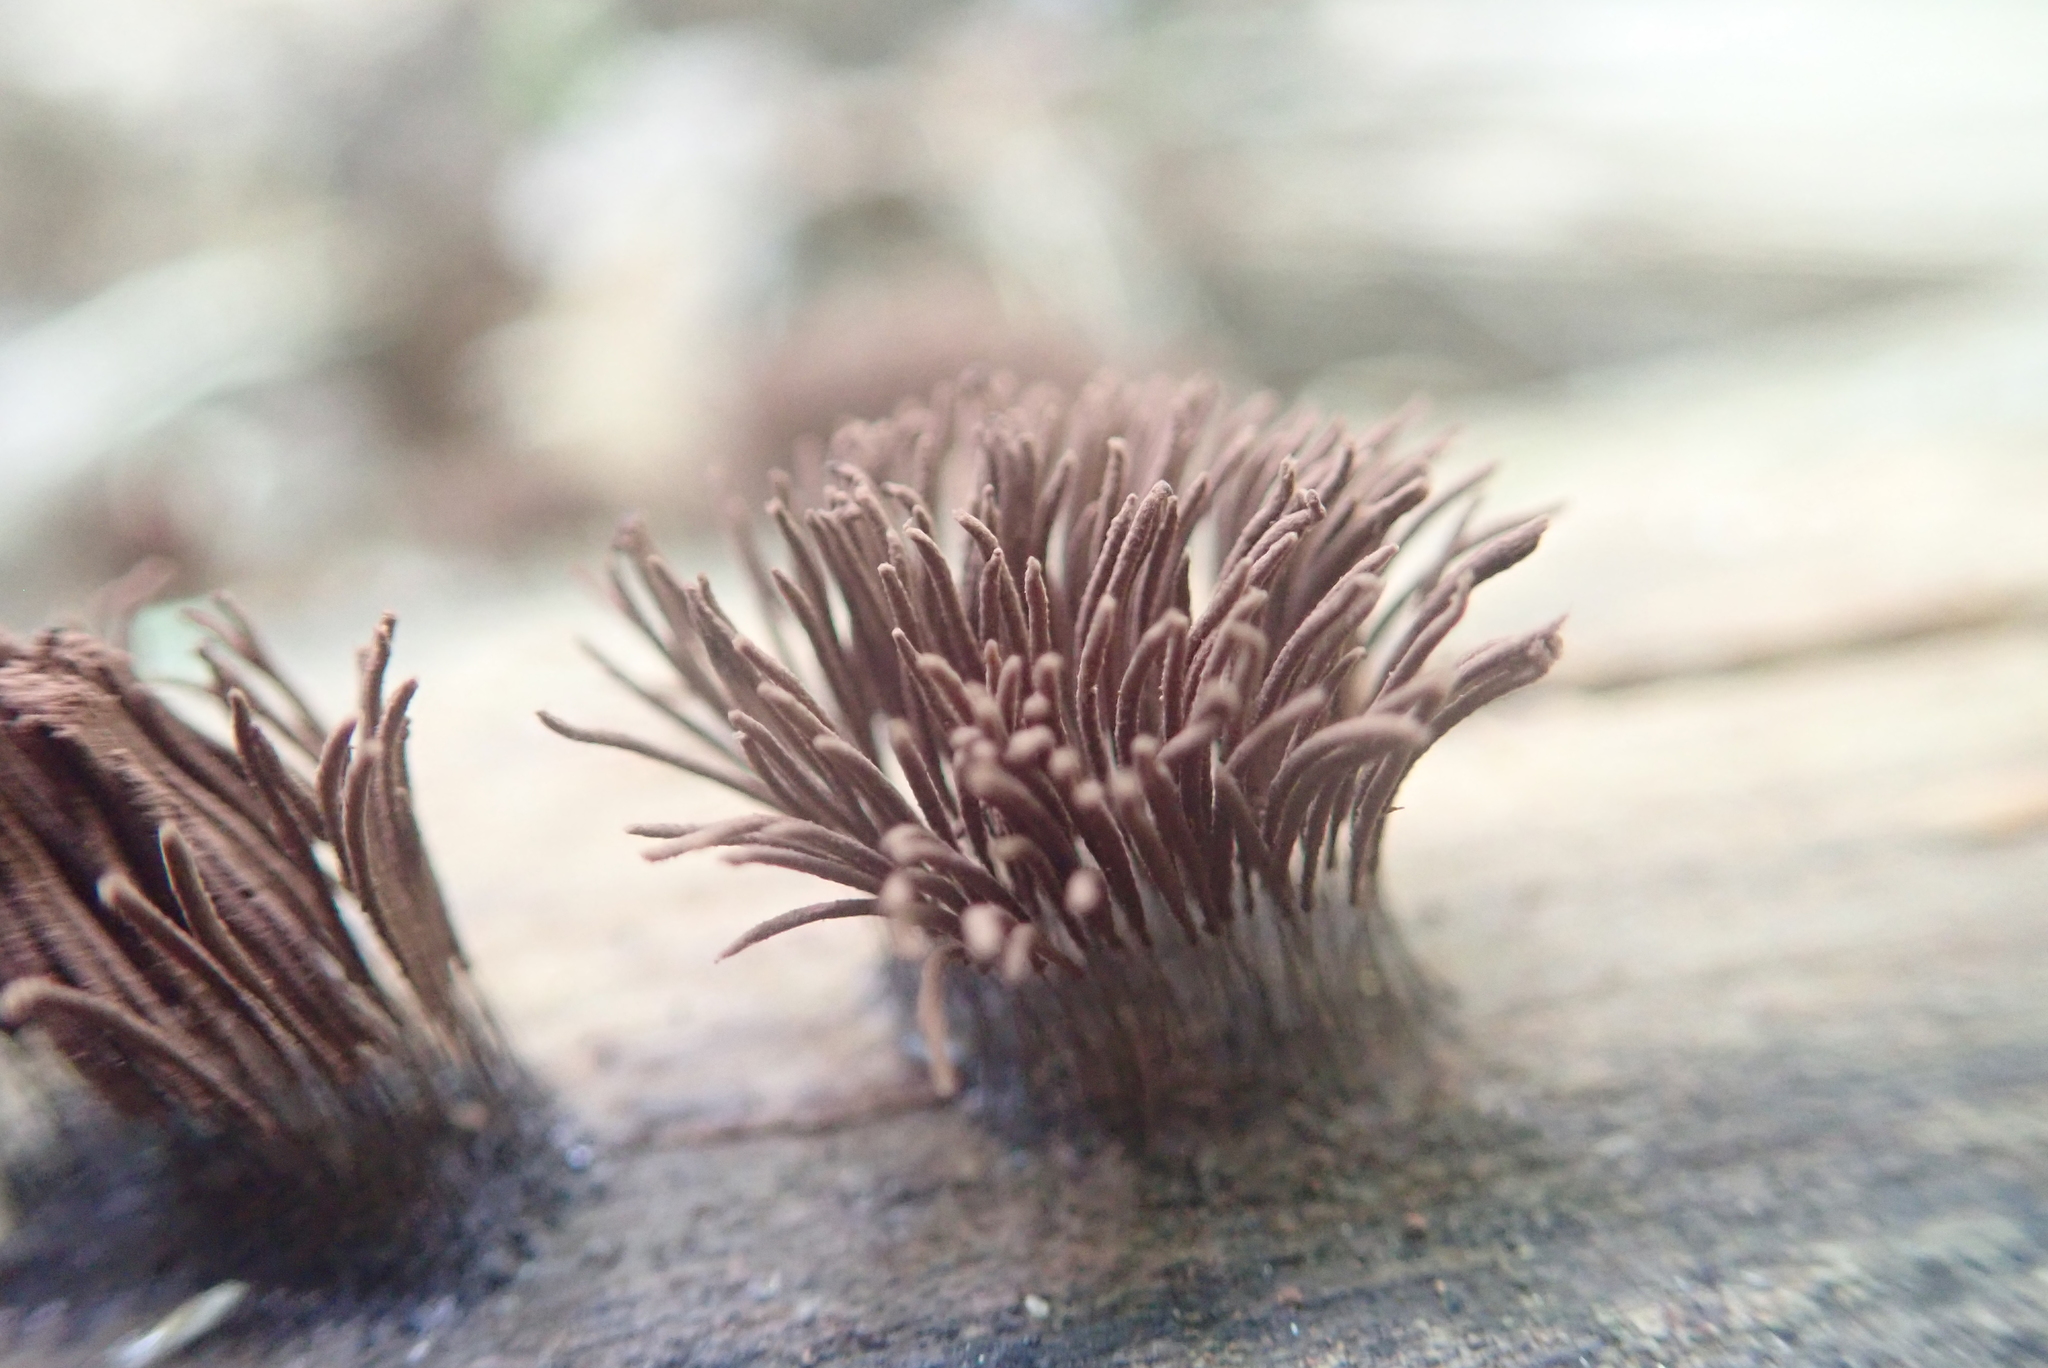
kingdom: Protozoa
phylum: Mycetozoa
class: Myxomycetes
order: Stemonitidales
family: Stemonitidaceae
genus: Stemonitis
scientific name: Stemonitis splendens
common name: Chocolate tube slime
